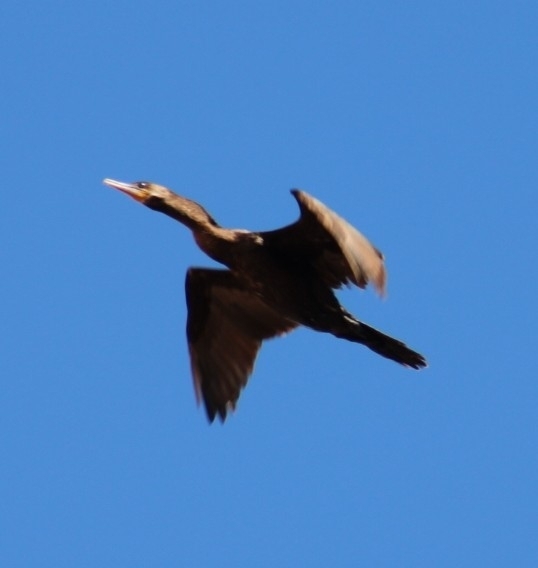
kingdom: Animalia
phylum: Chordata
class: Aves
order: Suliformes
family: Phalacrocoracidae
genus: Phalacrocorax
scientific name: Phalacrocorax brasilianus
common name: Neotropic cormorant
